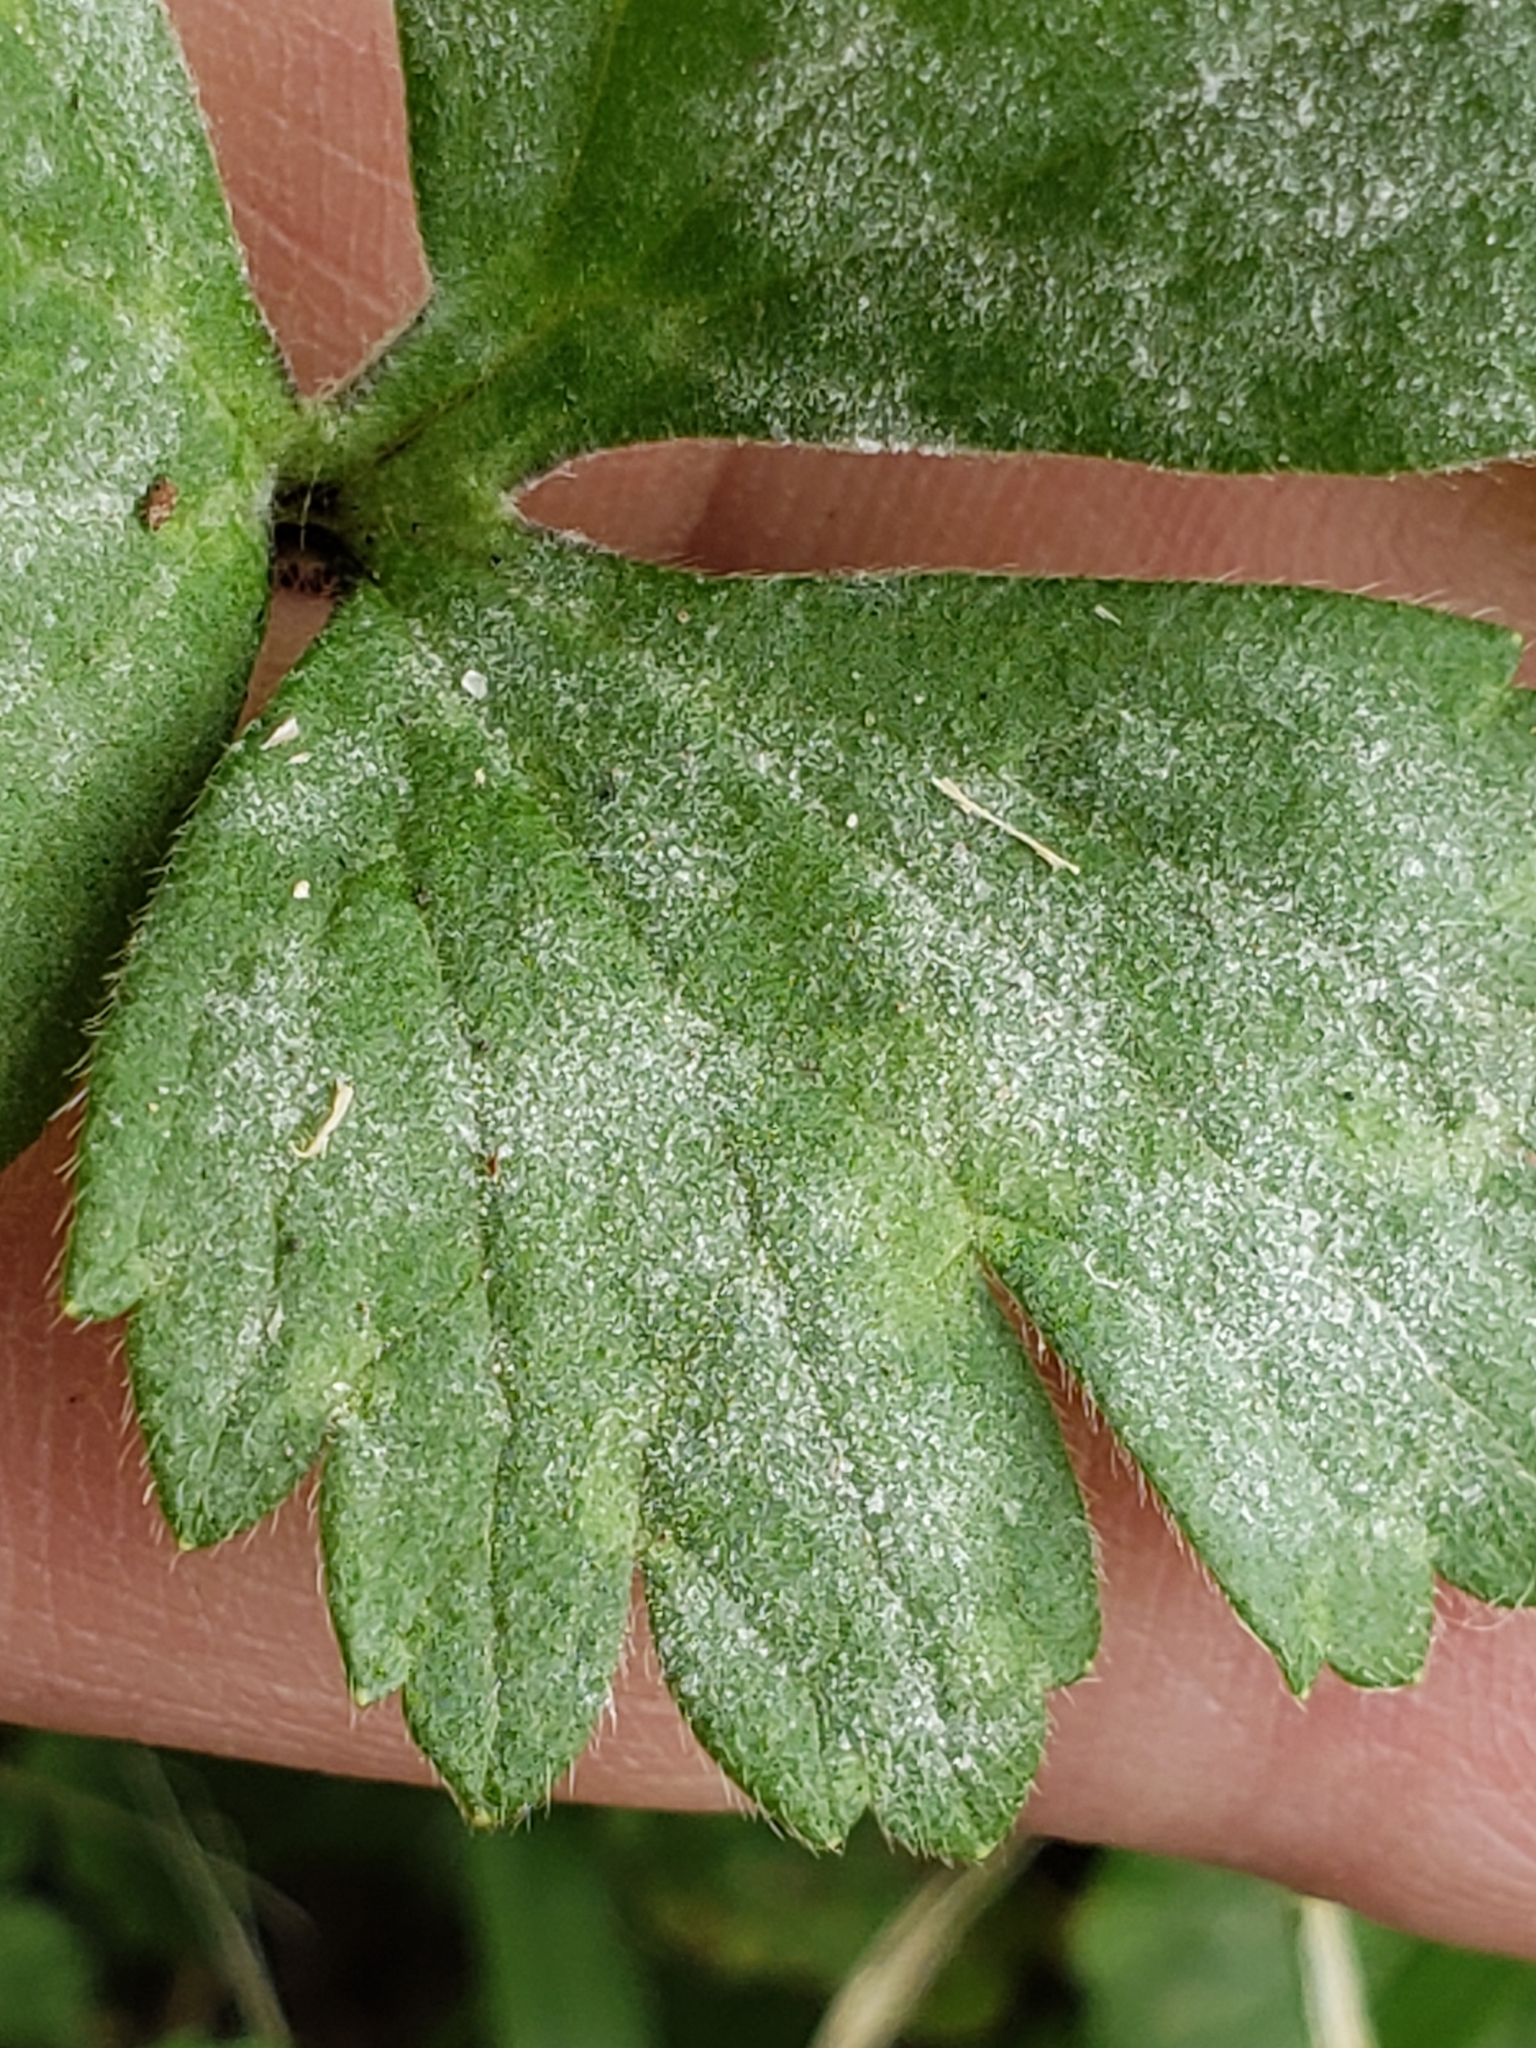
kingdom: Fungi
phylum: Ascomycota
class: Leotiomycetes
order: Helotiales
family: Erysiphaceae
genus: Erysiphe
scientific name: Erysiphe aquilegiae
